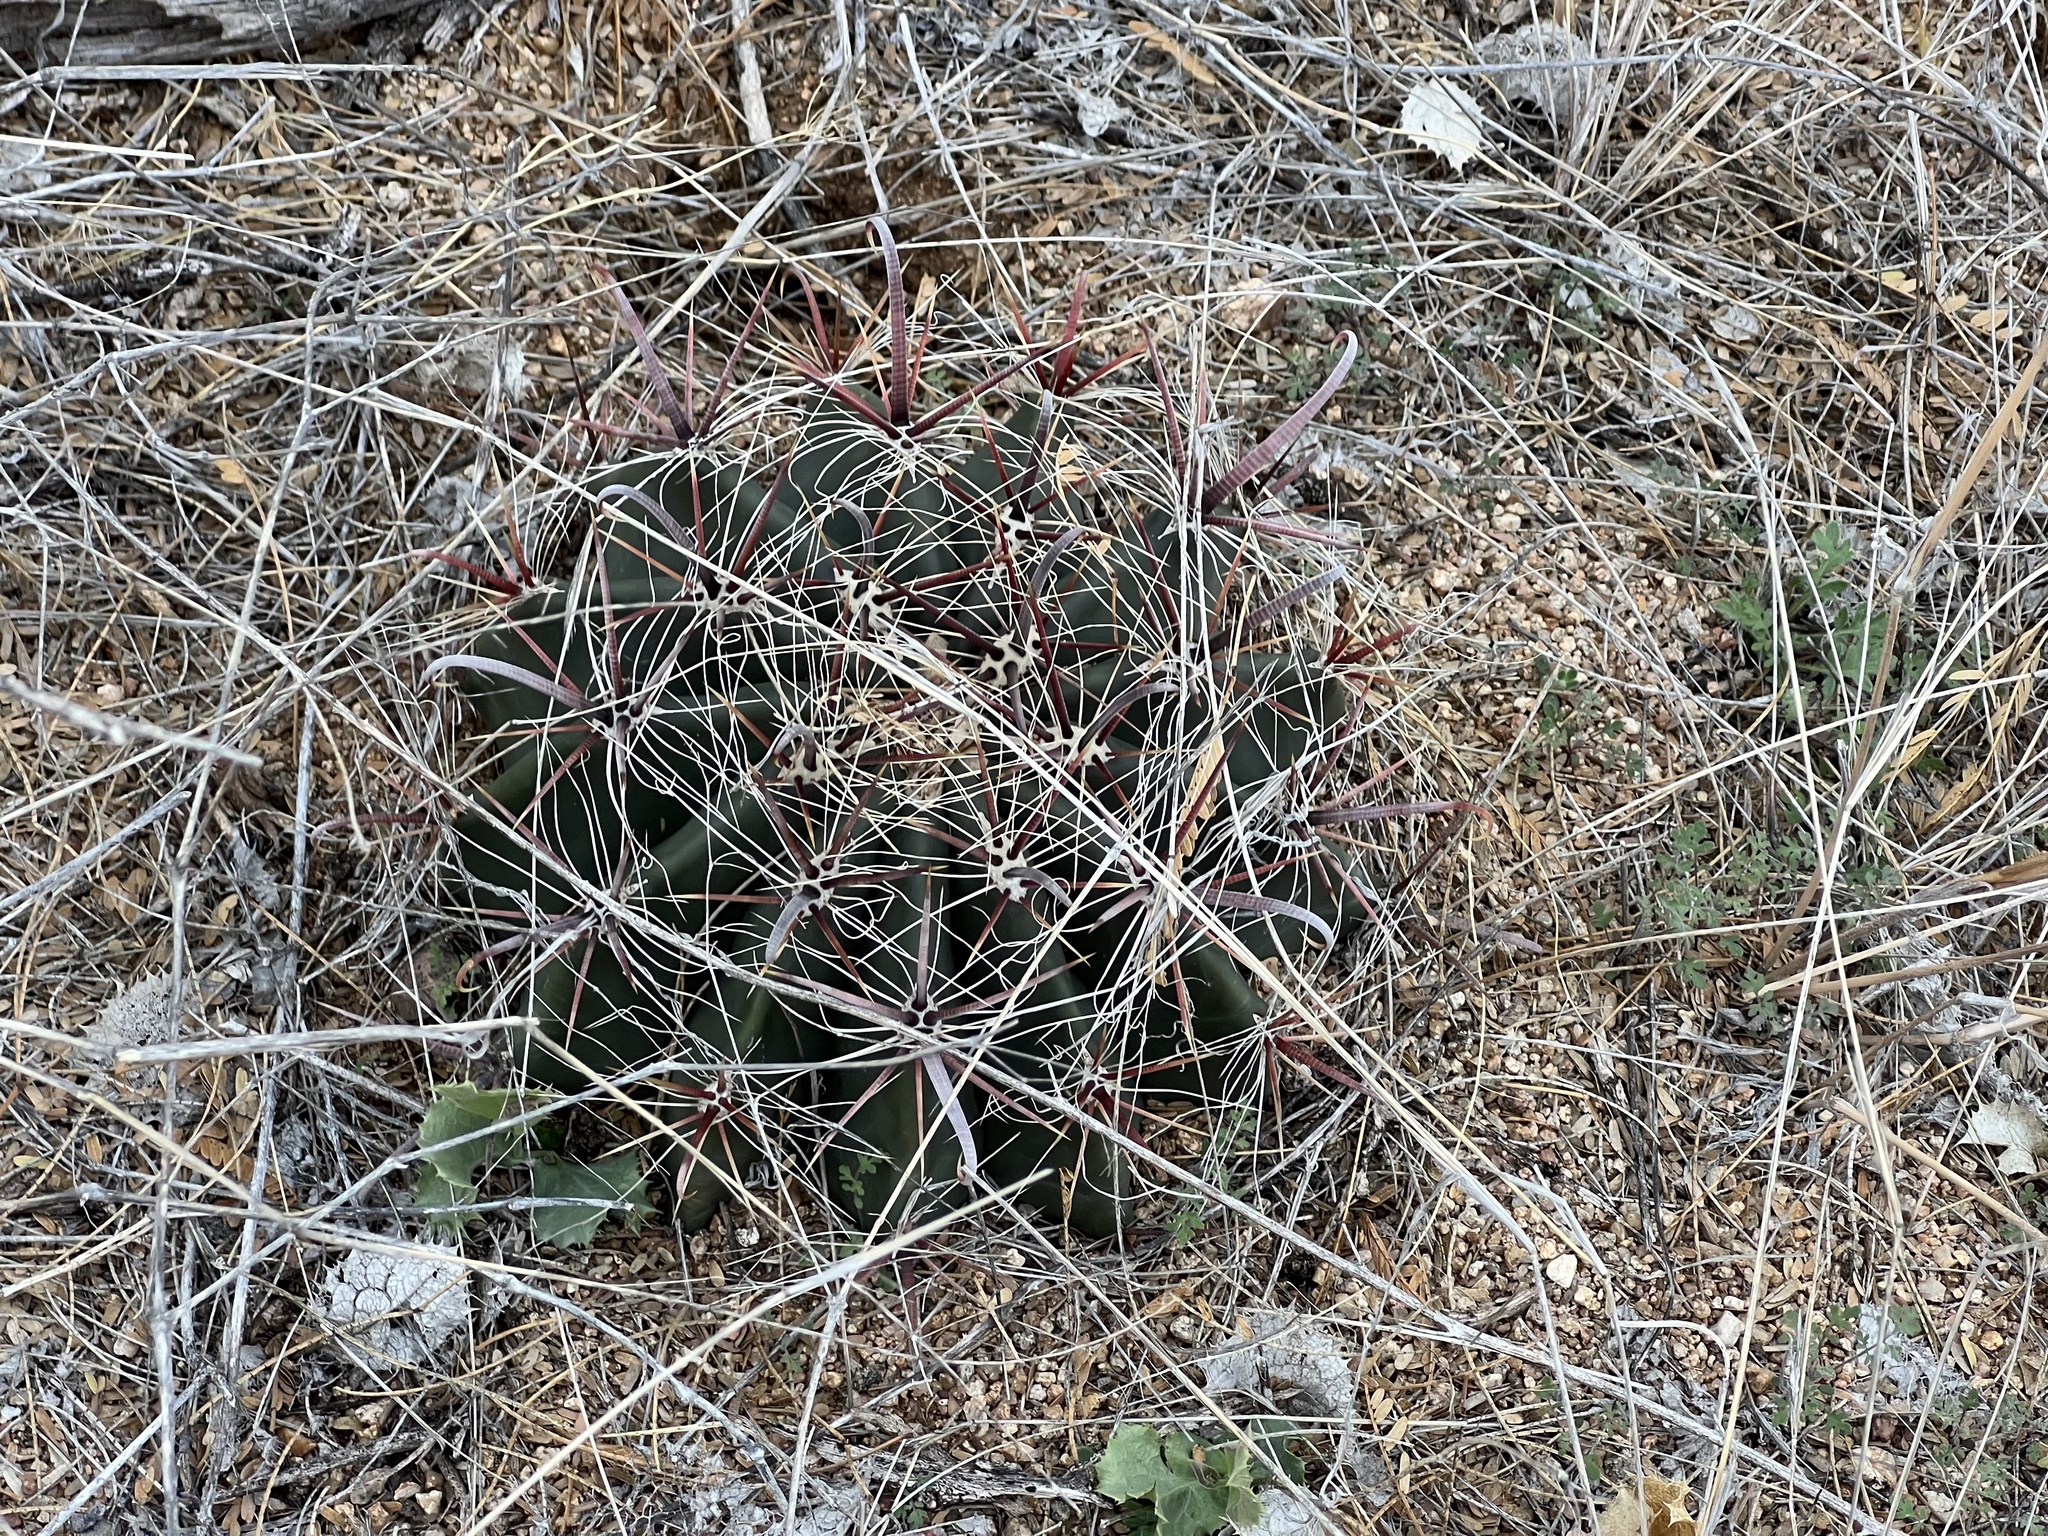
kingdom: Plantae
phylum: Tracheophyta
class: Magnoliopsida
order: Caryophyllales
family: Cactaceae
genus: Ferocactus
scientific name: Ferocactus wislizeni
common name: Candy barrel cactus
